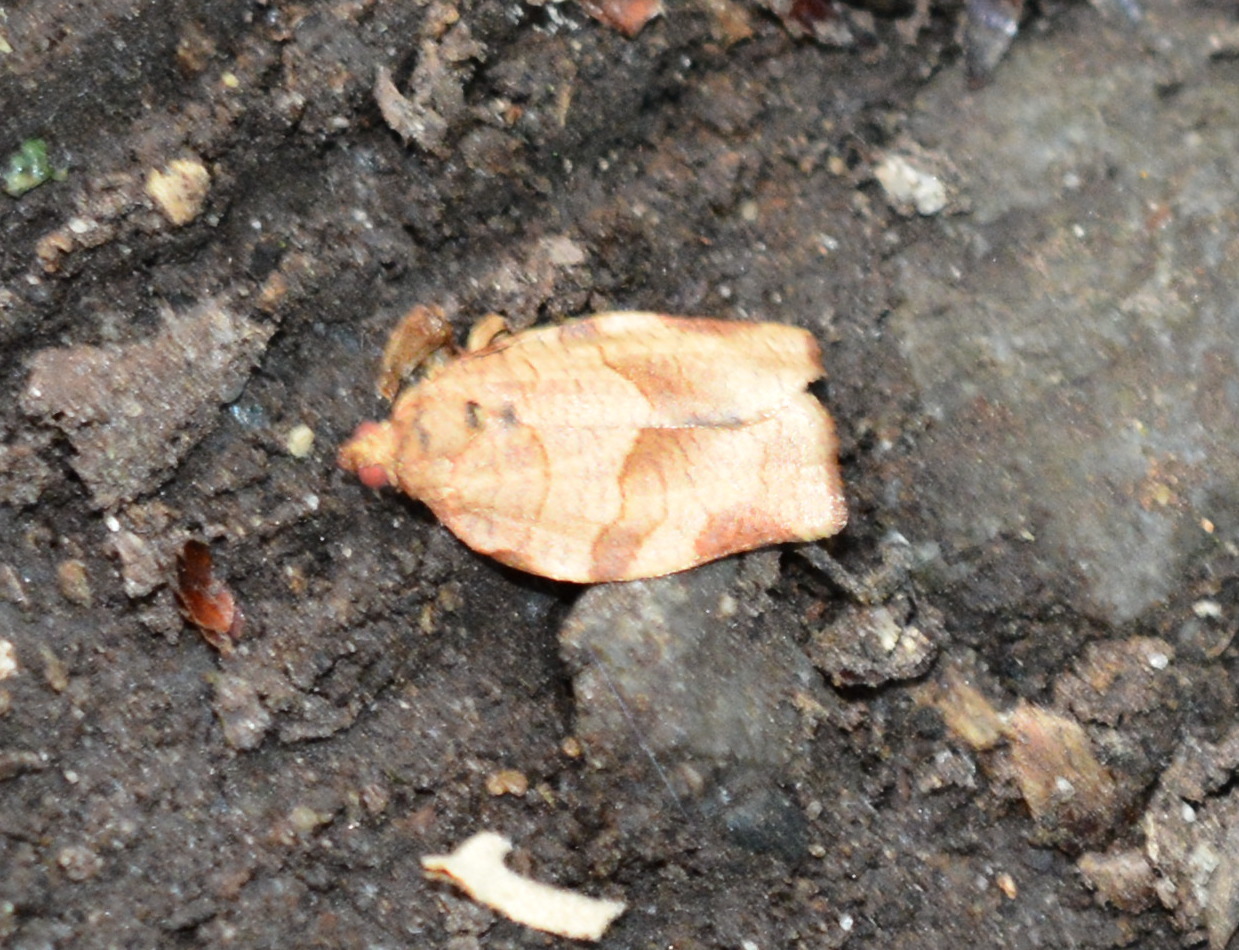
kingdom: Animalia
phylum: Arthropoda
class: Insecta
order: Lepidoptera
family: Tortricidae
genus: Choristoneura
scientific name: Choristoneura rosaceana
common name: Oblique-banded leafroller moth
